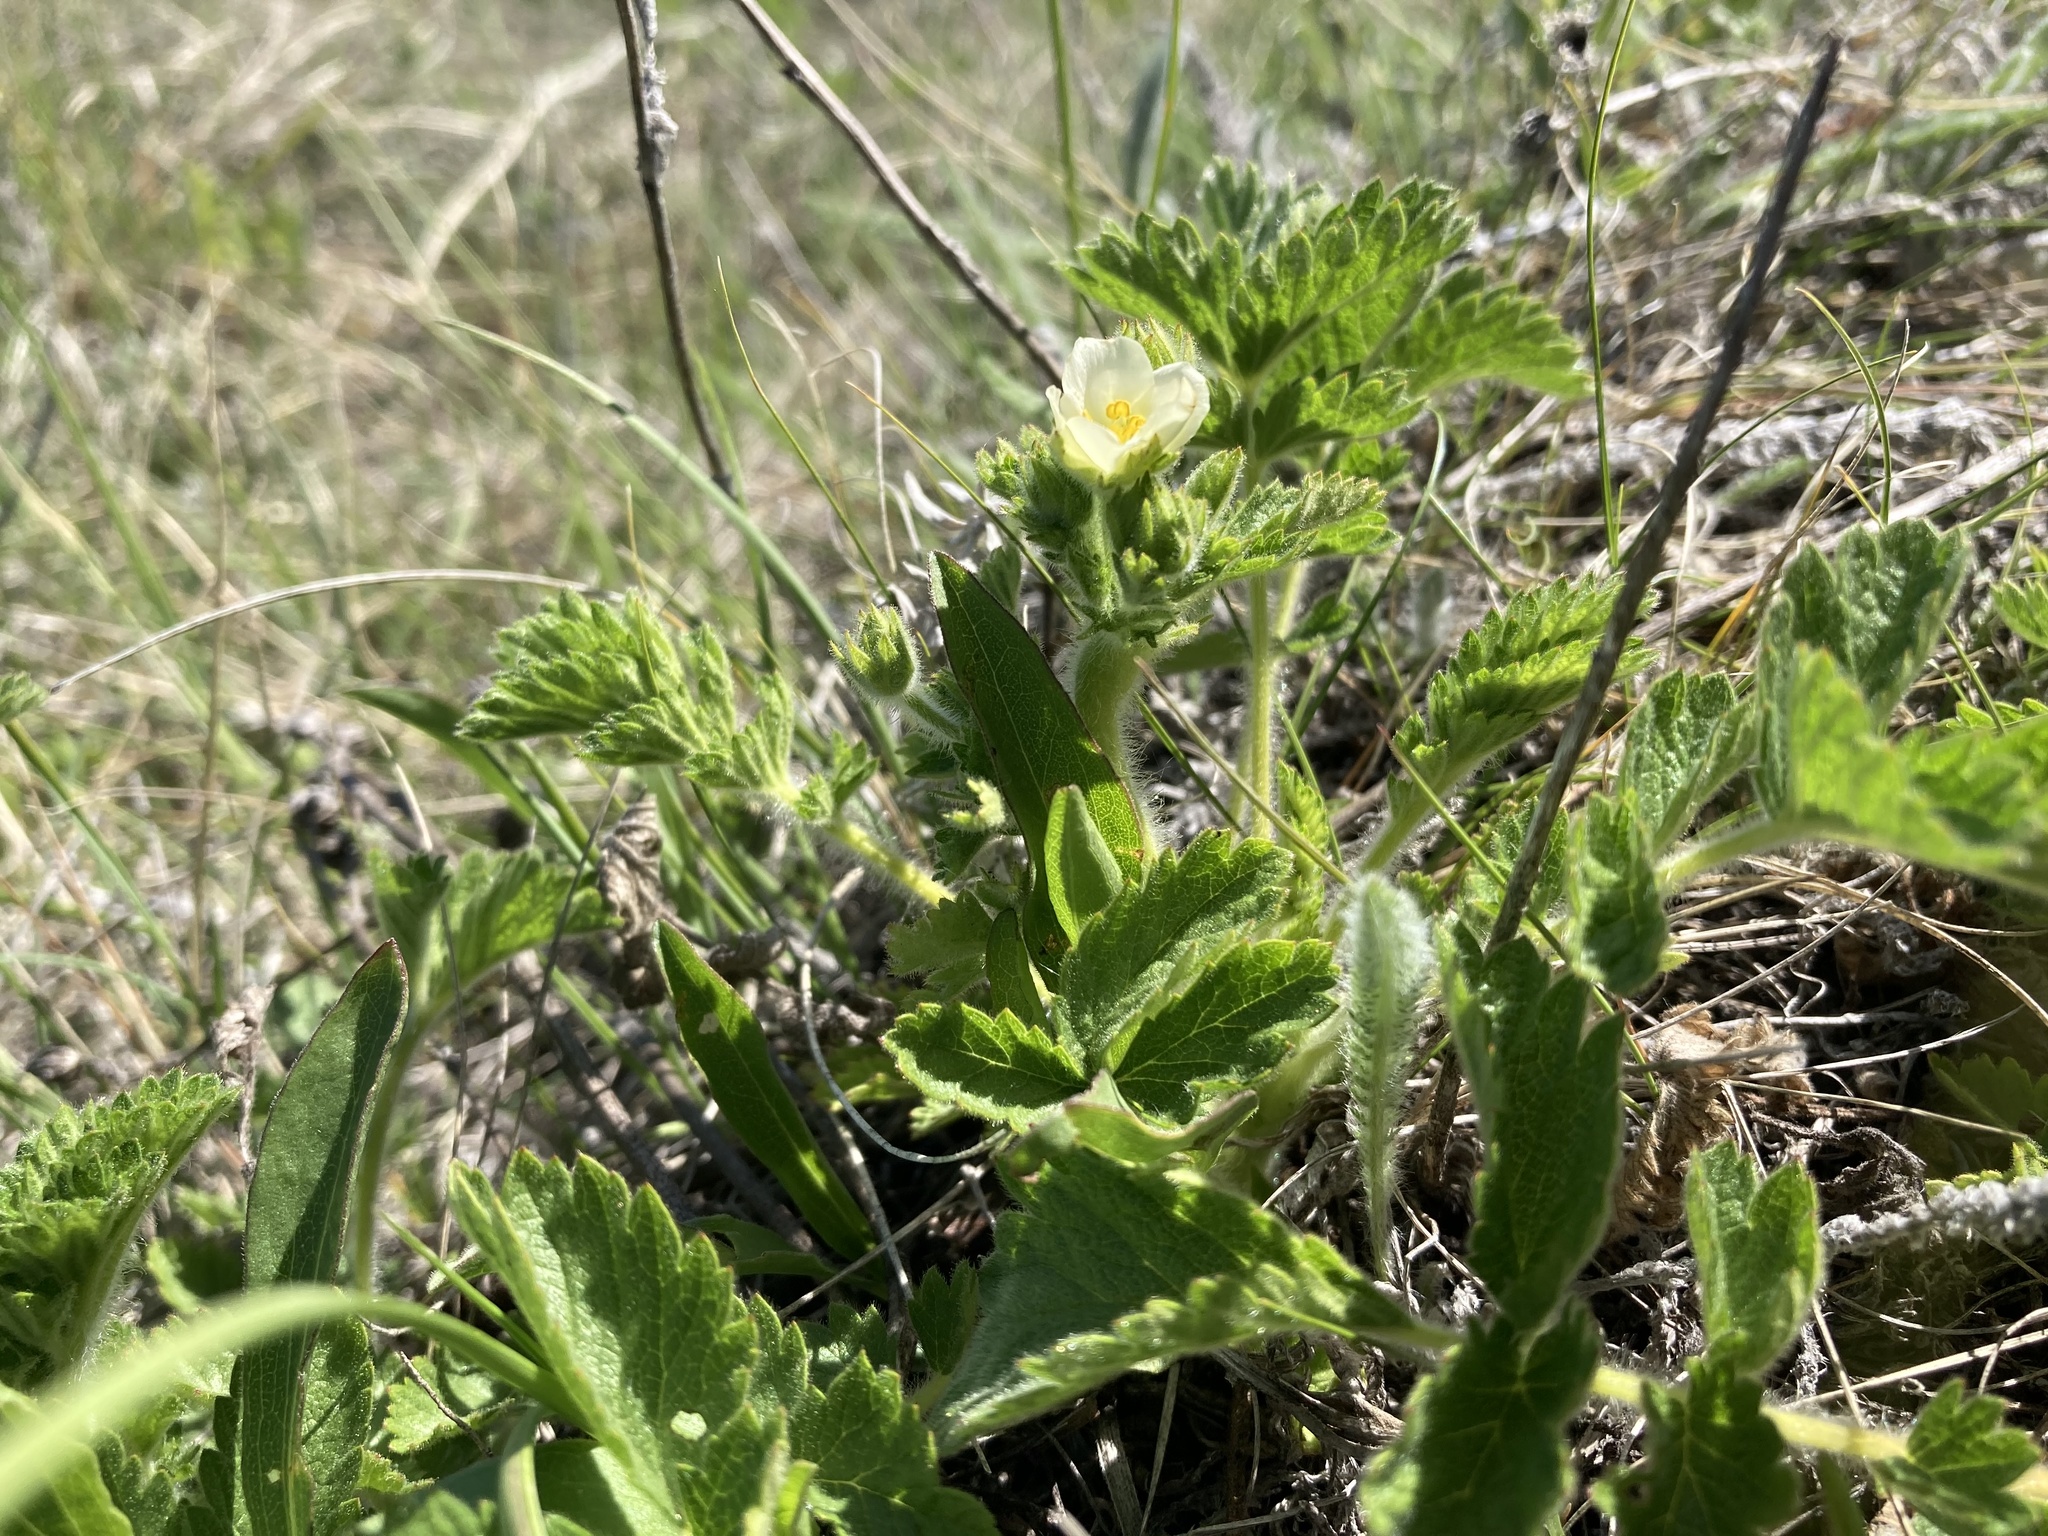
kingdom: Plantae
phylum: Tracheophyta
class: Magnoliopsida
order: Rosales
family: Rosaceae
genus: Drymocallis
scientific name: Drymocallis arguta
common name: Tall cinquefoil
